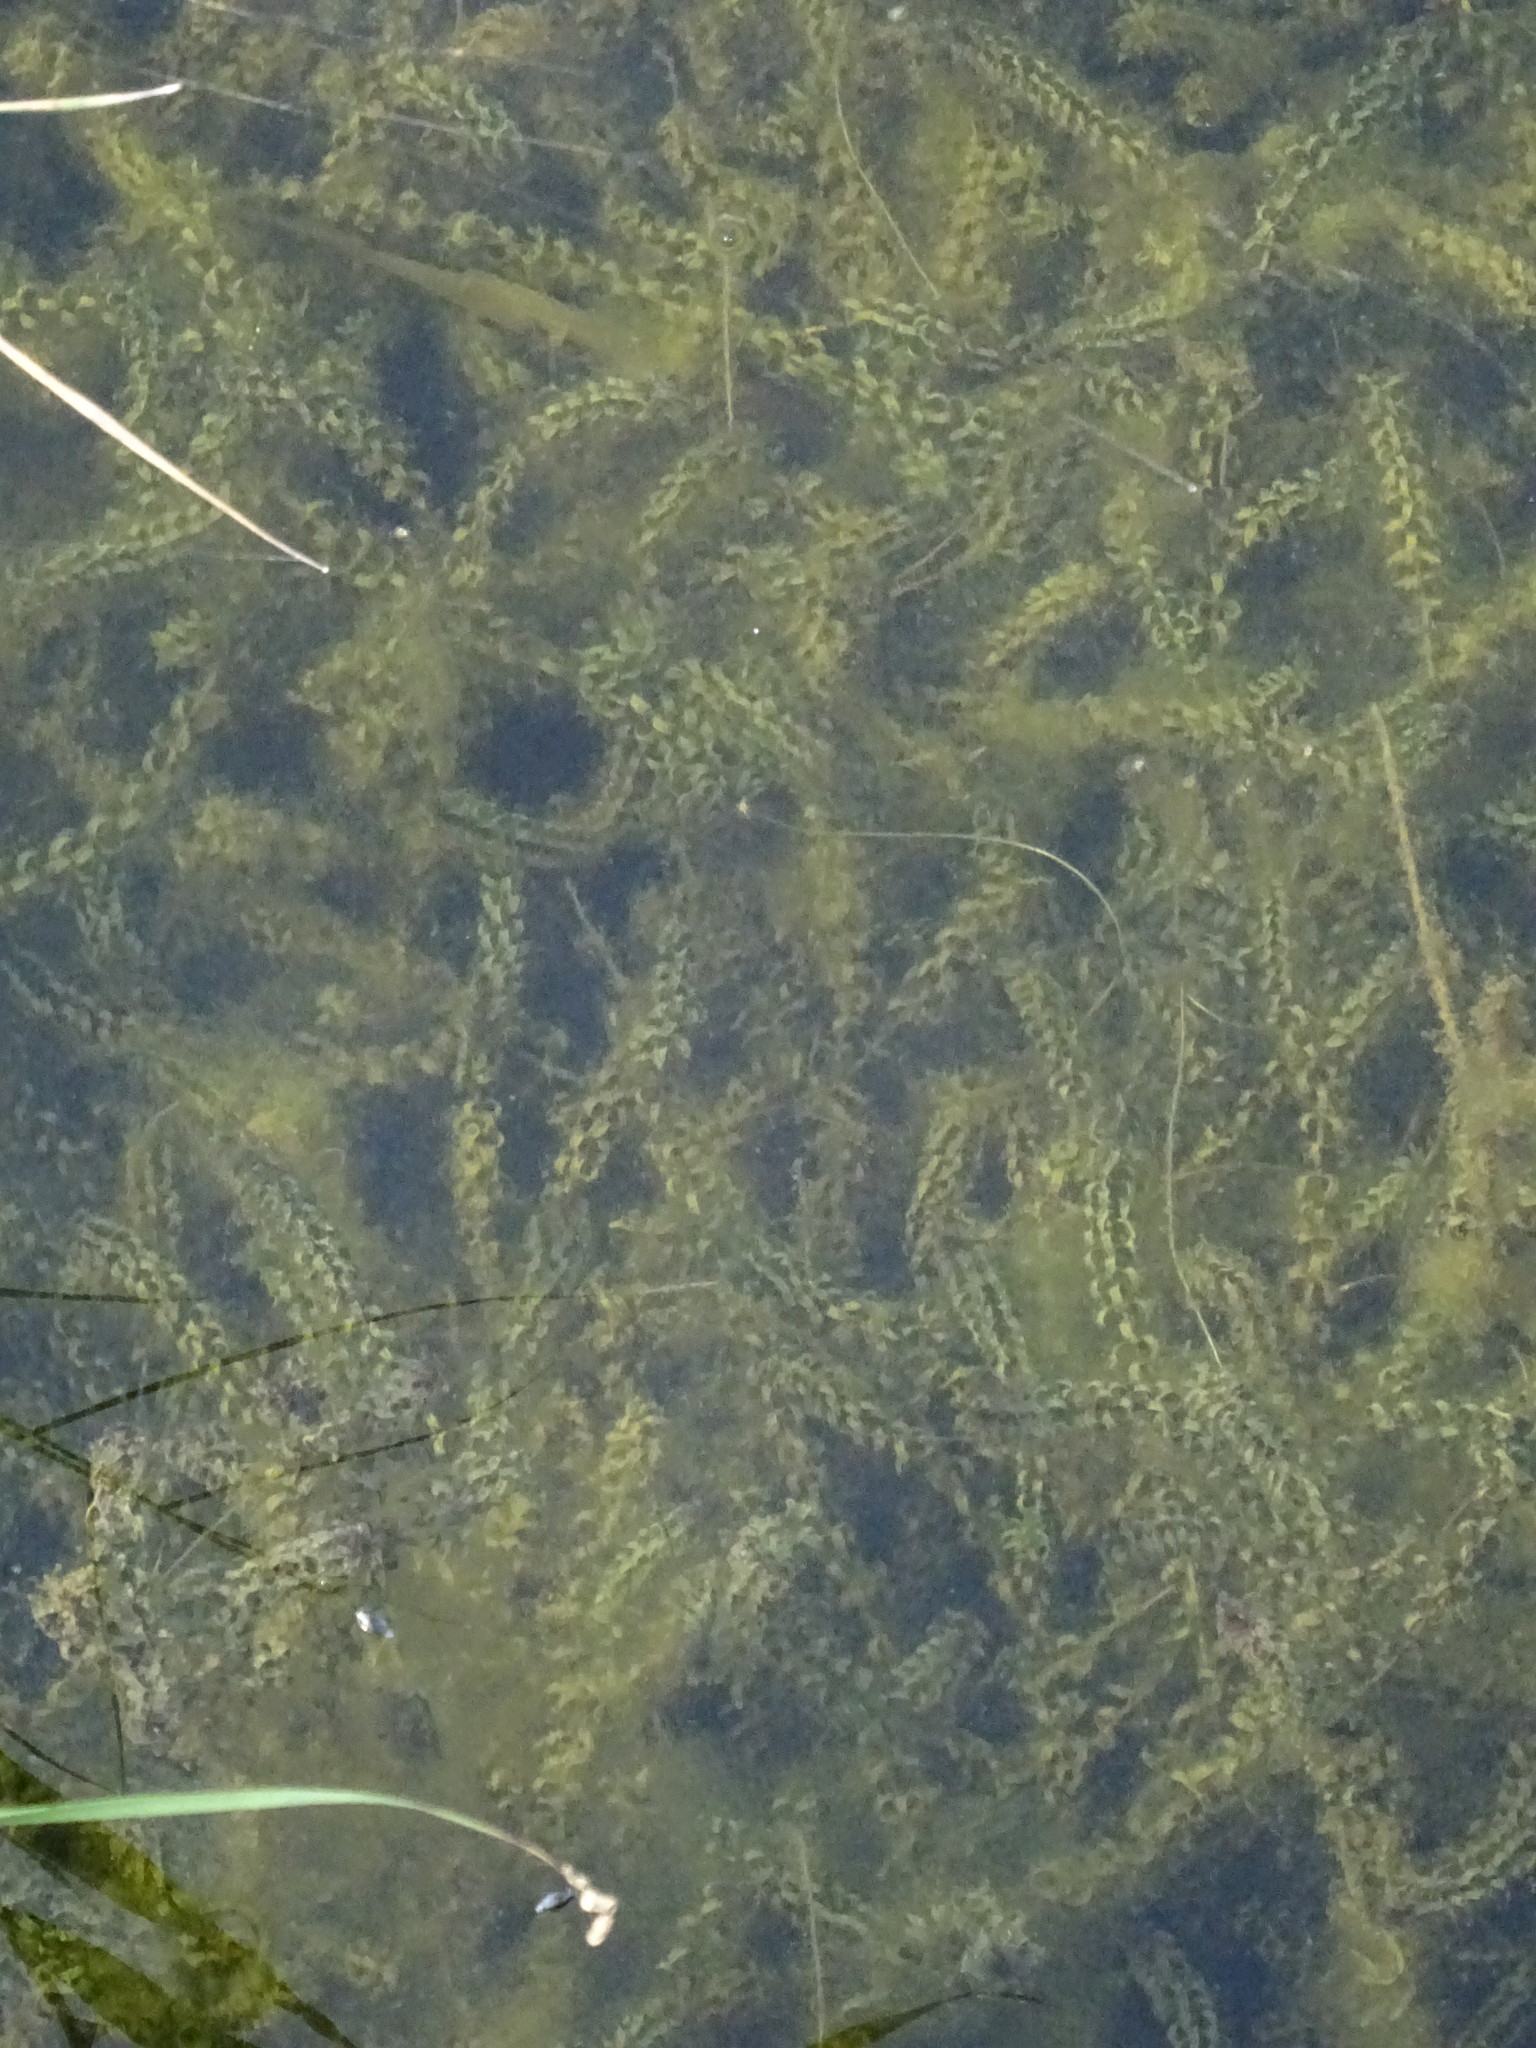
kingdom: Plantae
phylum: Tracheophyta
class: Liliopsida
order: Alismatales
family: Hydrocharitaceae
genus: Elodea
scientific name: Elodea canadensis
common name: Canadian waterweed
